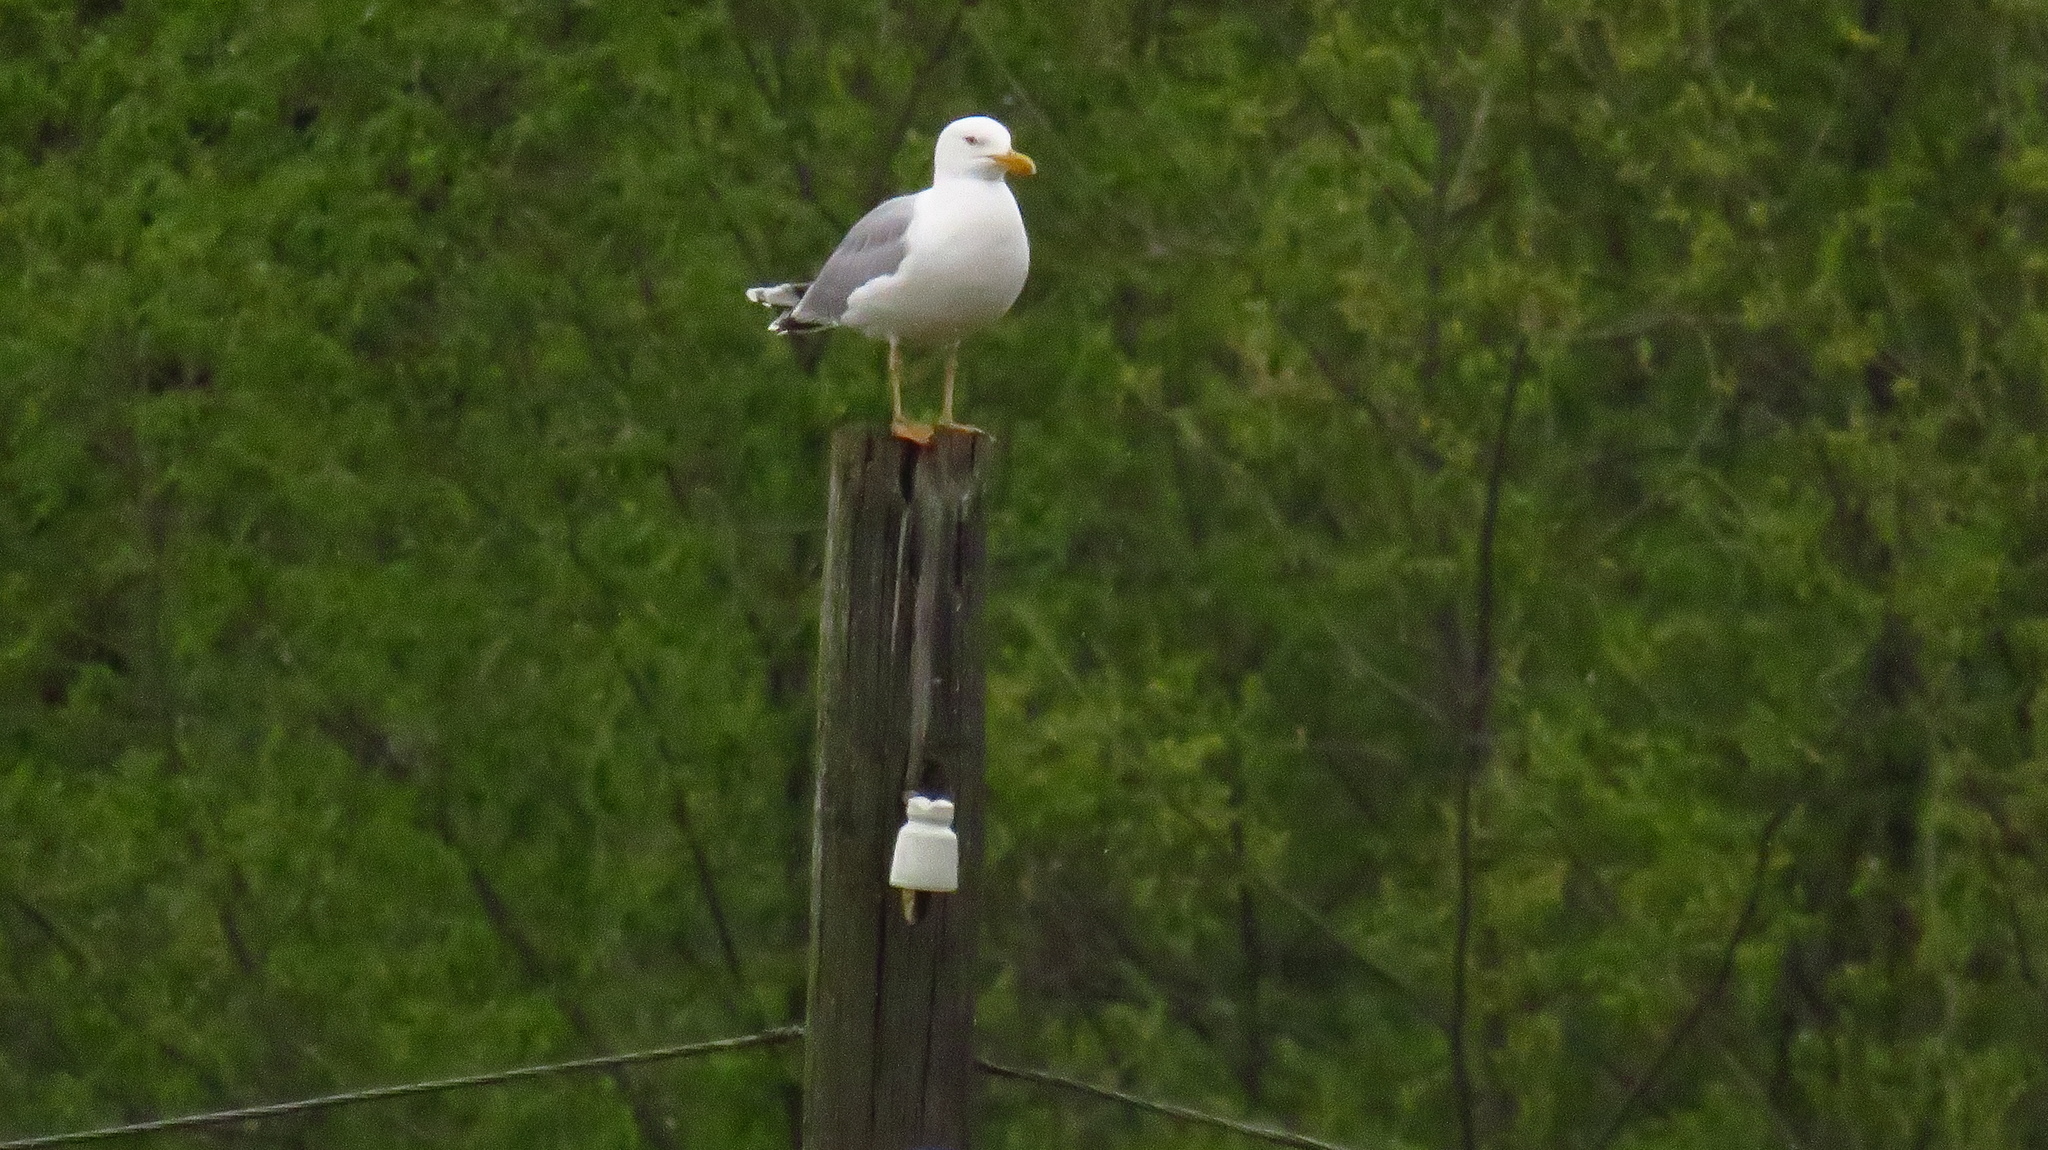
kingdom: Animalia
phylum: Chordata
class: Aves
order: Charadriiformes
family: Laridae
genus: Larus
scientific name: Larus argentatus
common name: Herring gull
